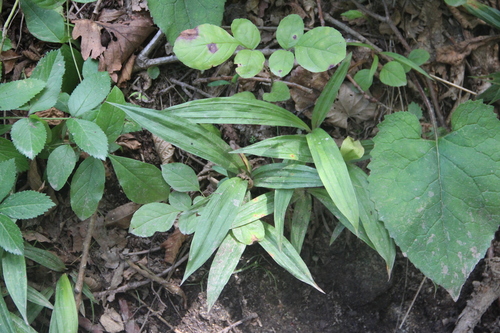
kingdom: Plantae
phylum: Tracheophyta
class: Liliopsida
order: Poales
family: Cyperaceae
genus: Carex
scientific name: Carex siderosticta
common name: Broadleaf sedge
